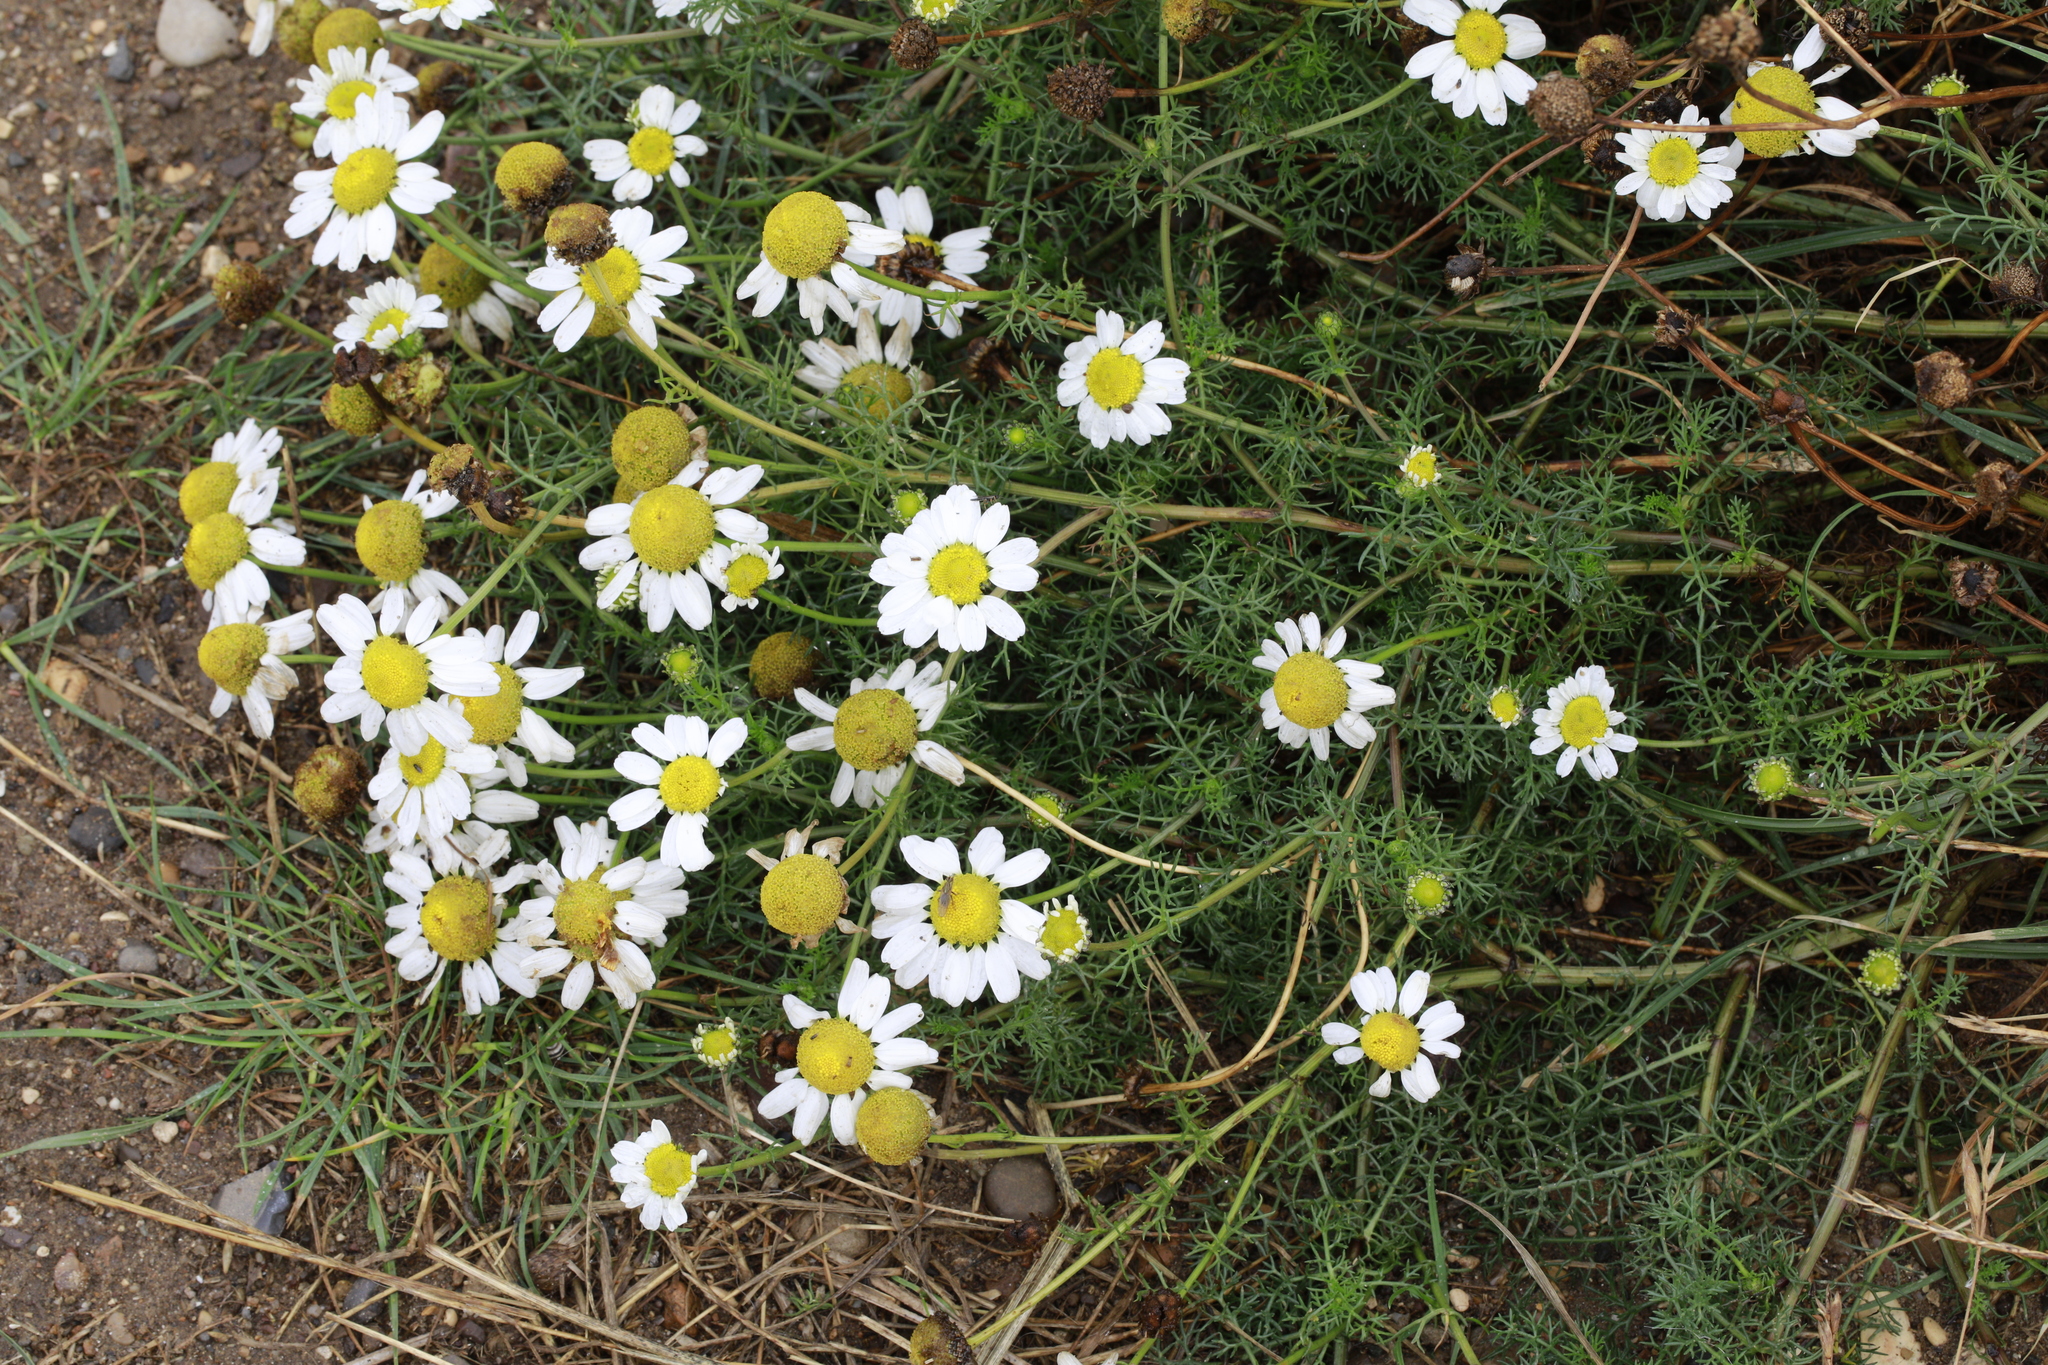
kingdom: Plantae
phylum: Tracheophyta
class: Magnoliopsida
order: Asterales
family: Asteraceae
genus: Tripleurospermum
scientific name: Tripleurospermum maritimum
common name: Sea mayweed
